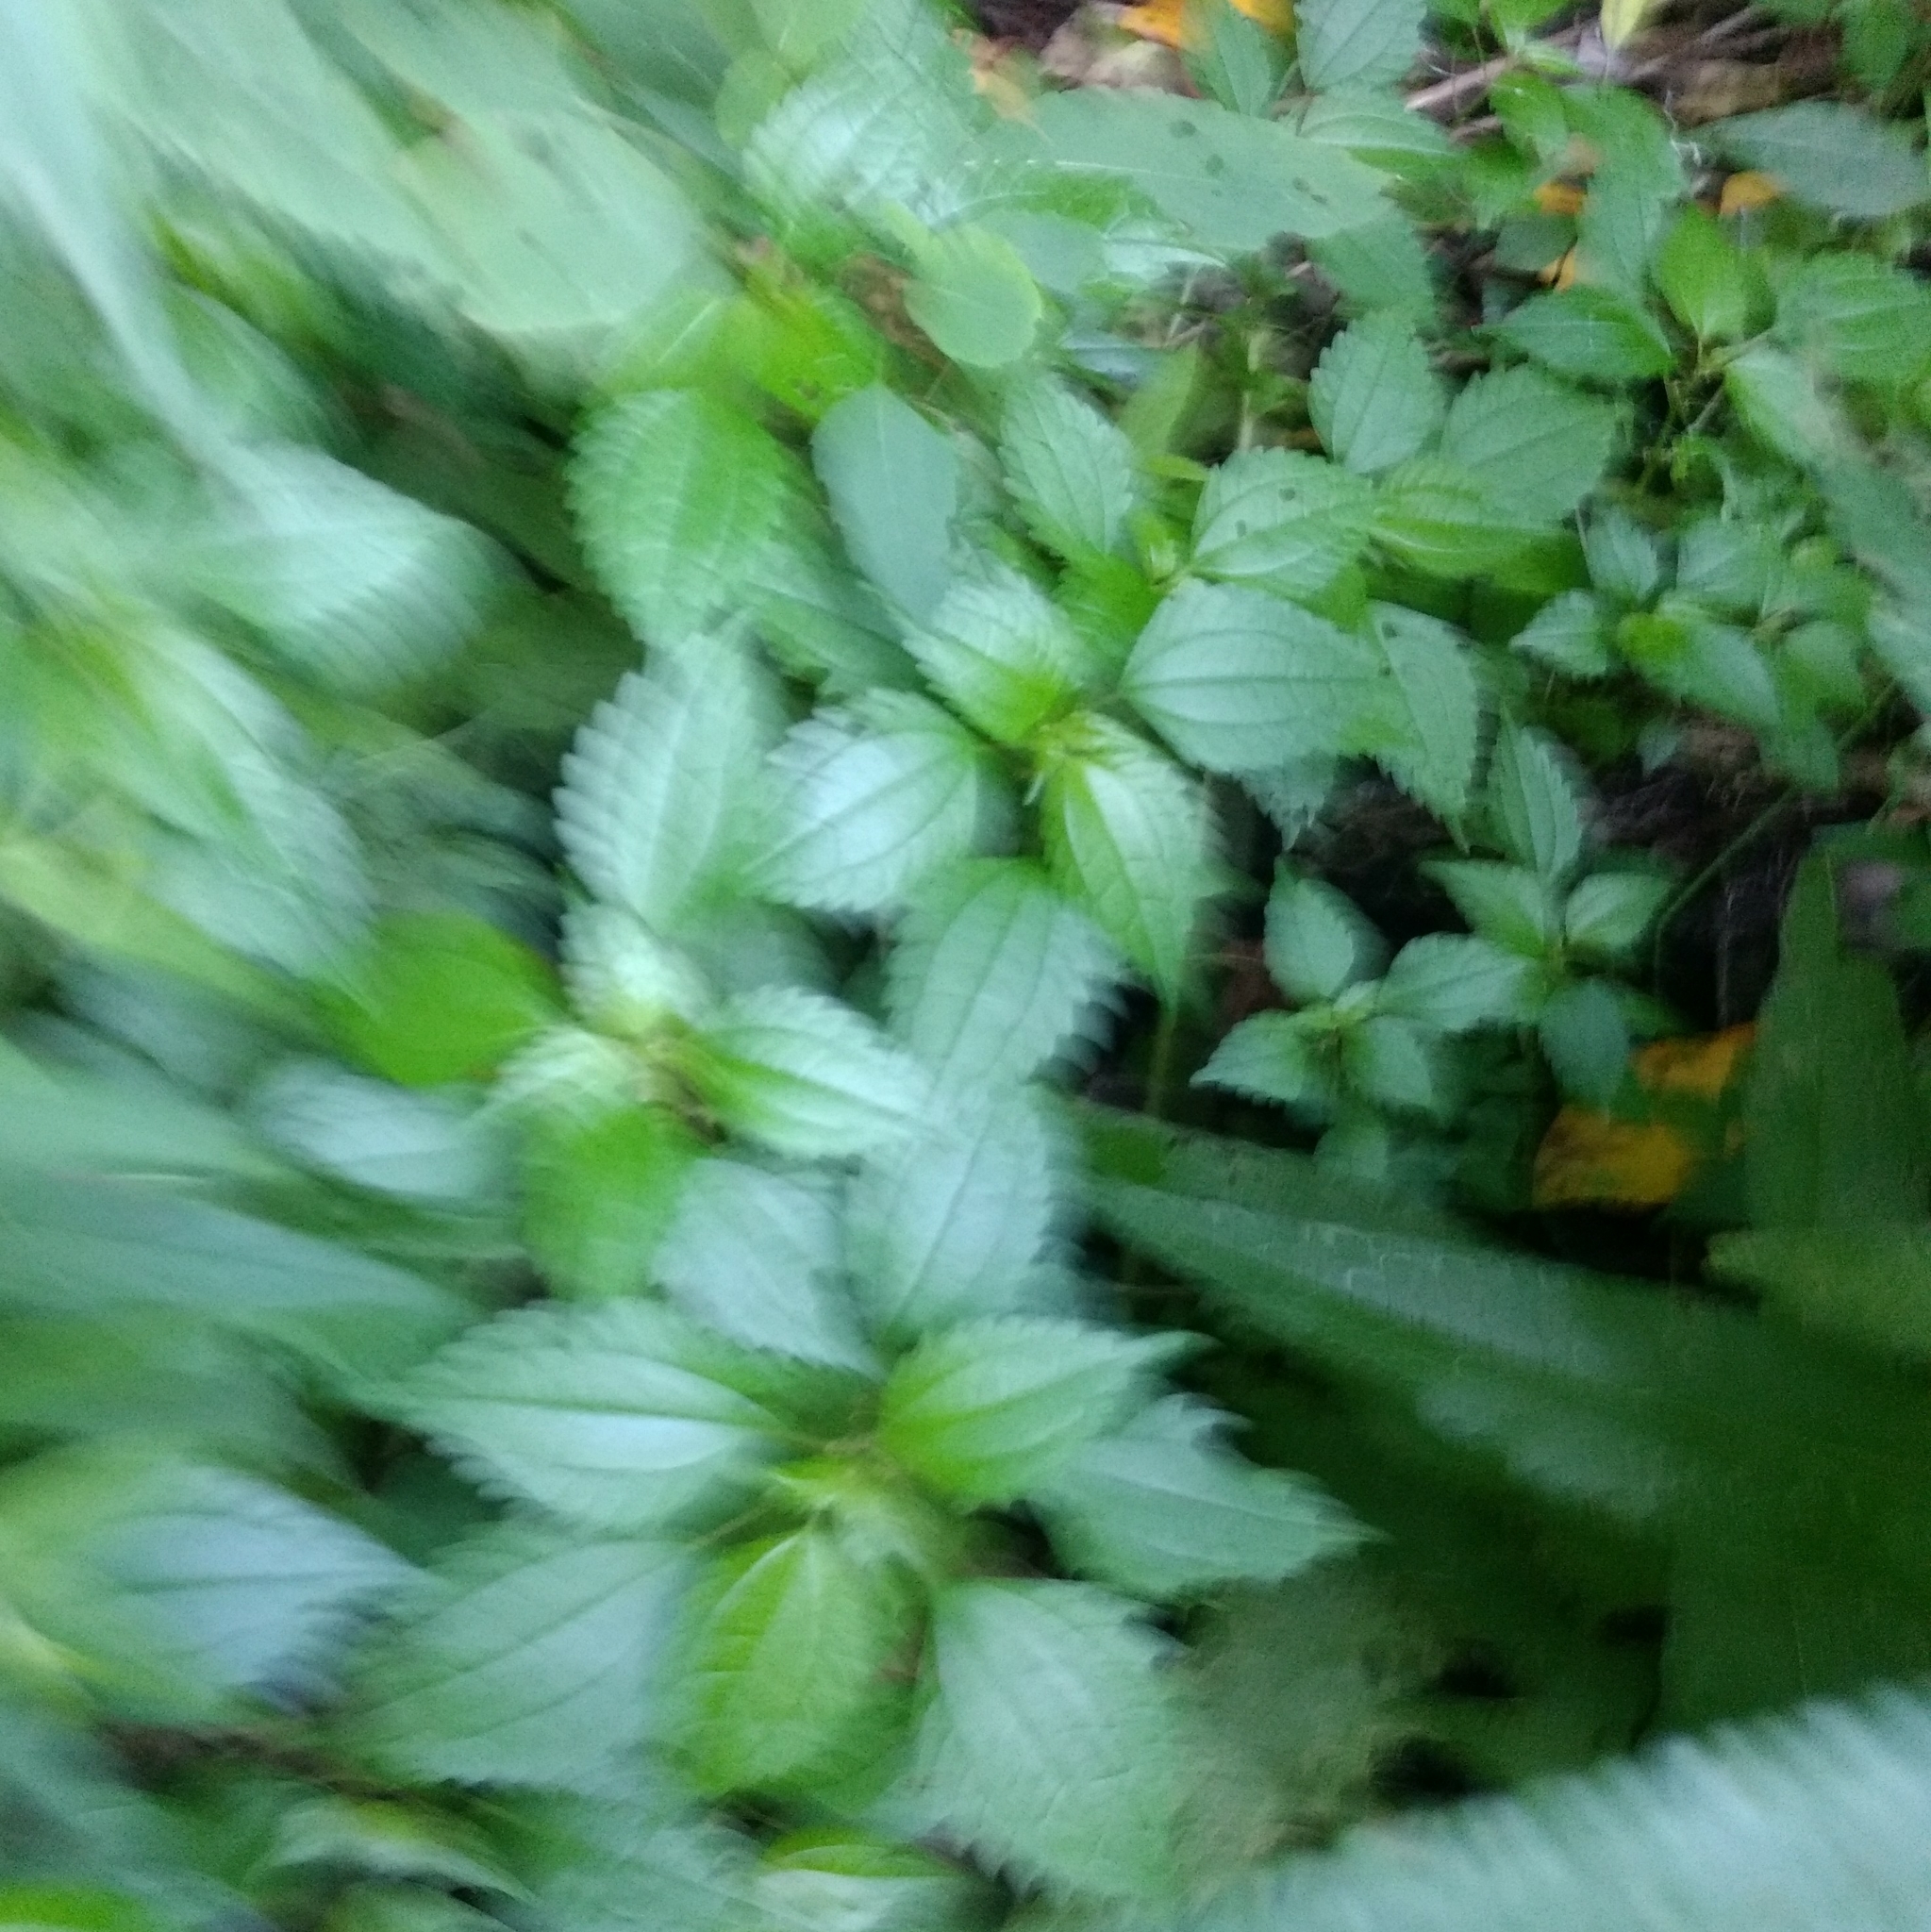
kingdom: Plantae
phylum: Tracheophyta
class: Magnoliopsida
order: Rosales
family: Urticaceae
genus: Pilea
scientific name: Pilea pumila
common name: Clearweed
